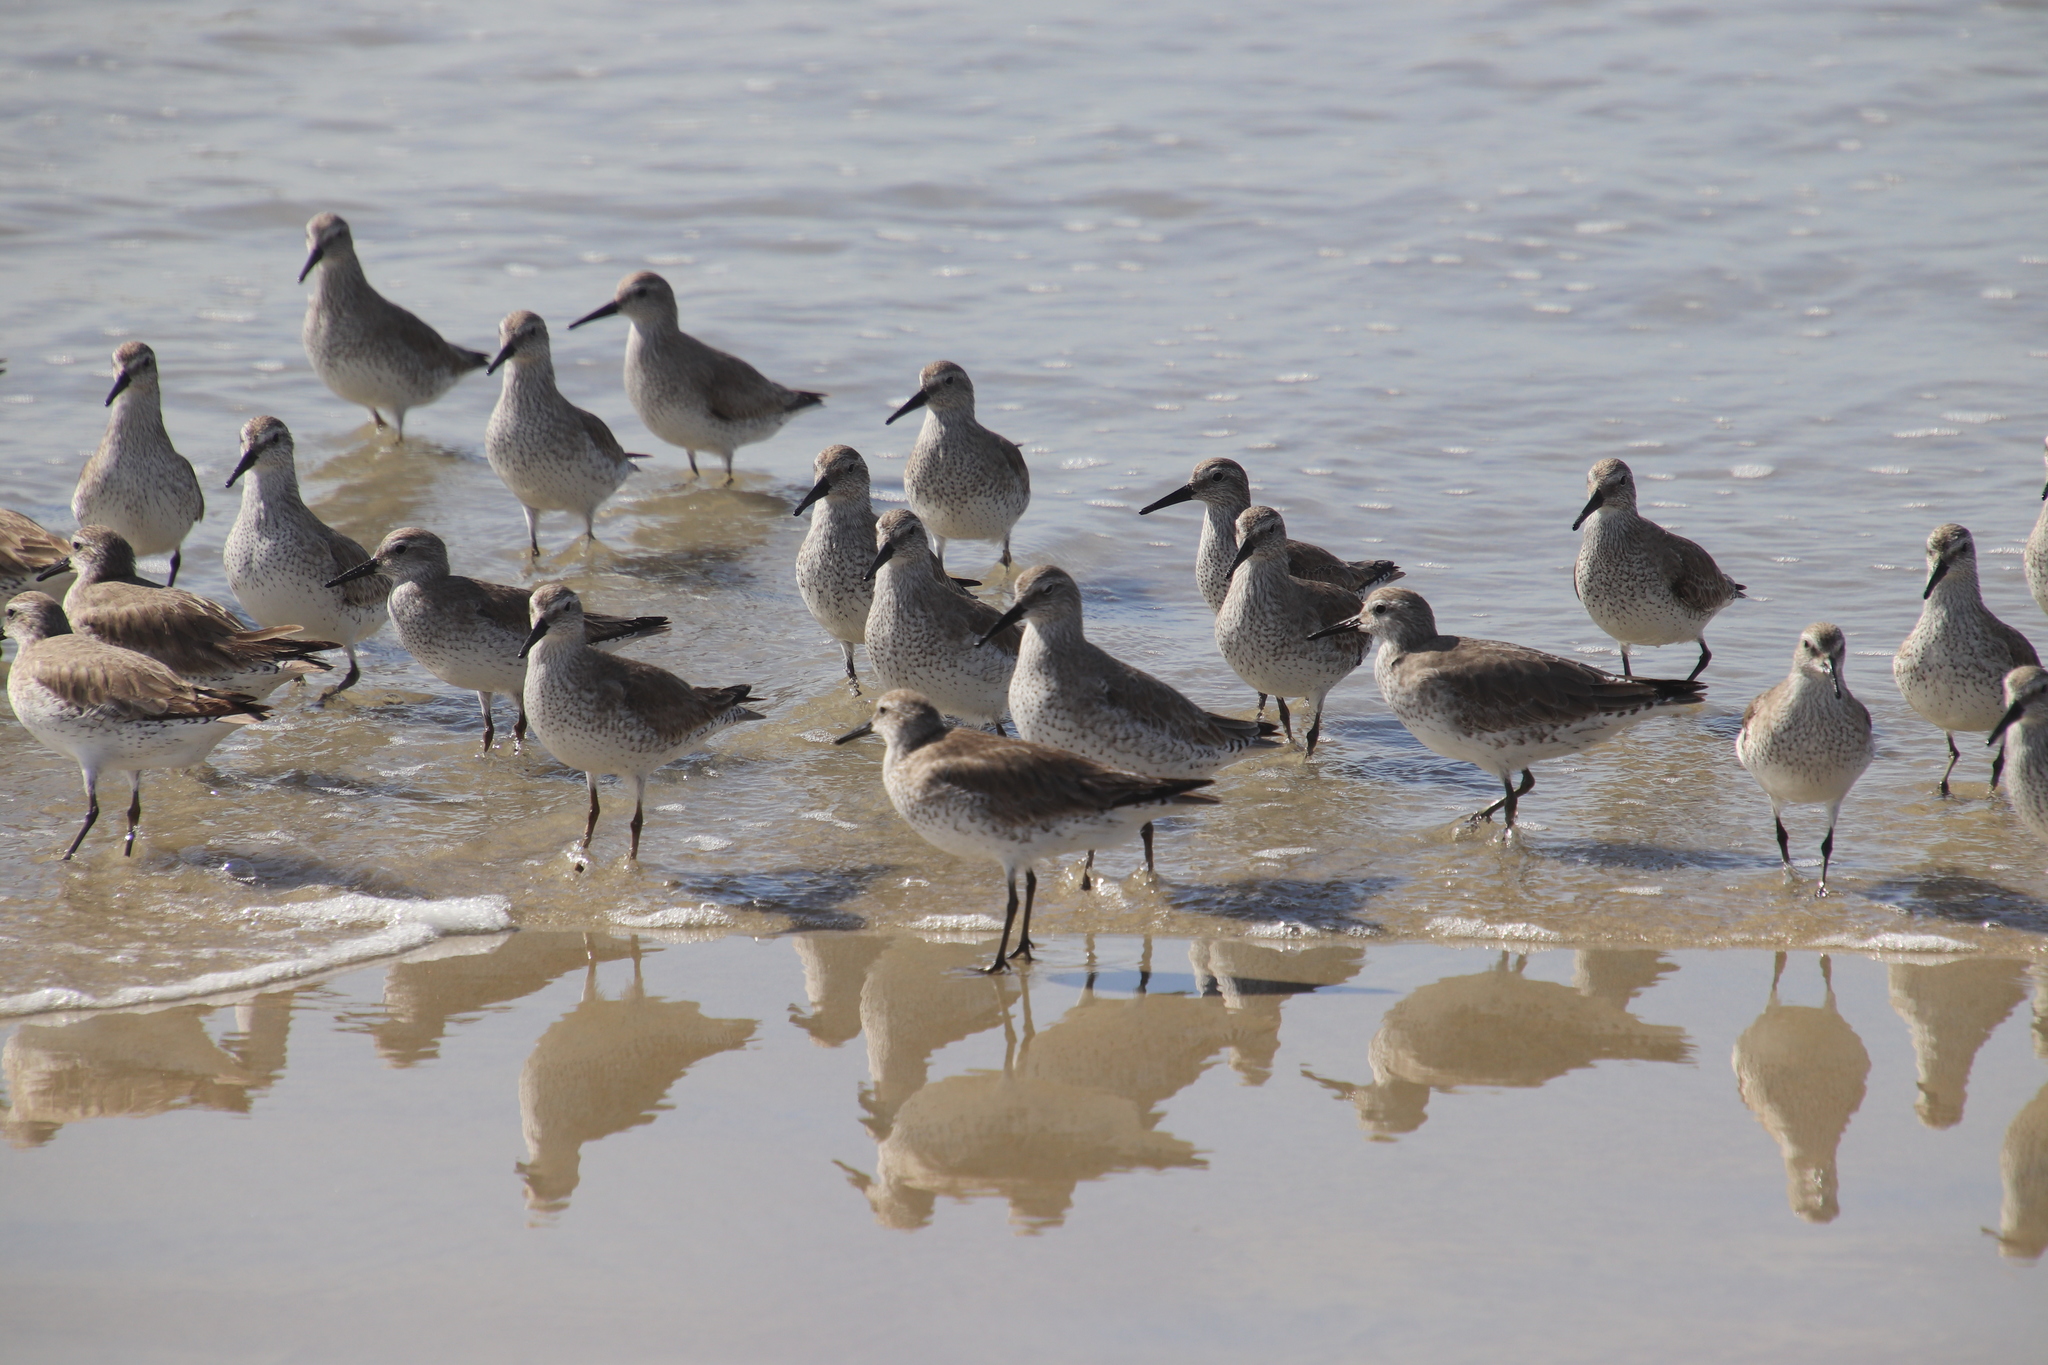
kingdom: Animalia
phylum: Chordata
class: Aves
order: Charadriiformes
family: Scolopacidae
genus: Calidris
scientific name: Calidris canutus
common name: Red knot
